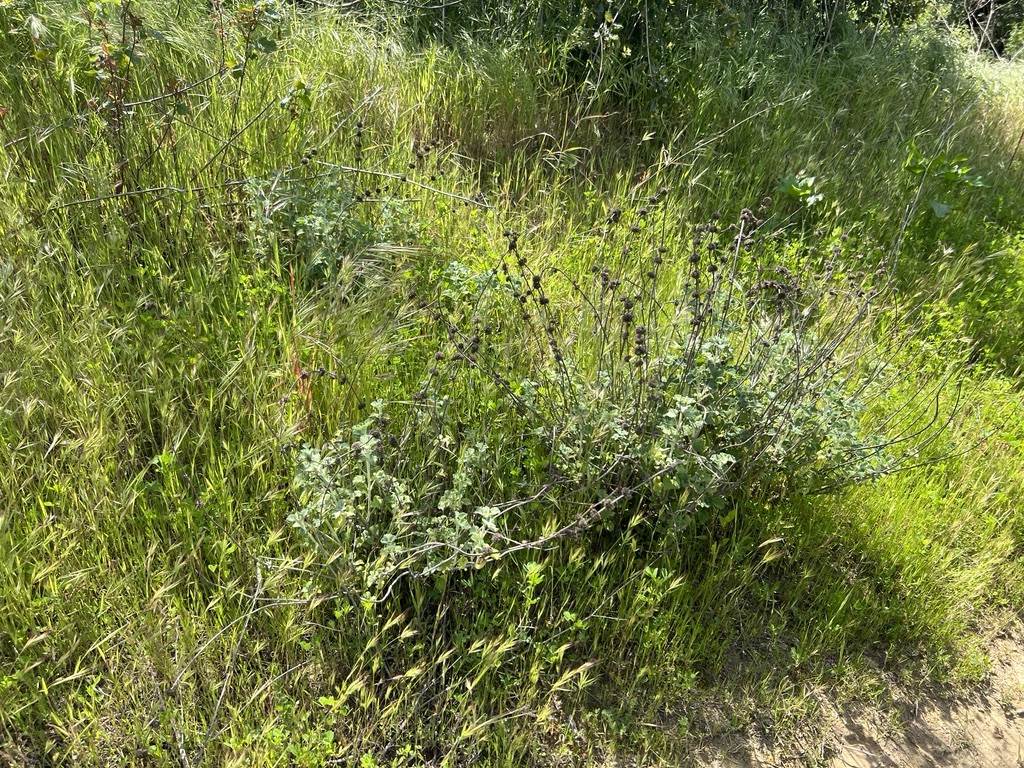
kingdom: Plantae
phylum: Tracheophyta
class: Magnoliopsida
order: Lamiales
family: Lamiaceae
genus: Marrubium
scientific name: Marrubium vulgare
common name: Horehound
